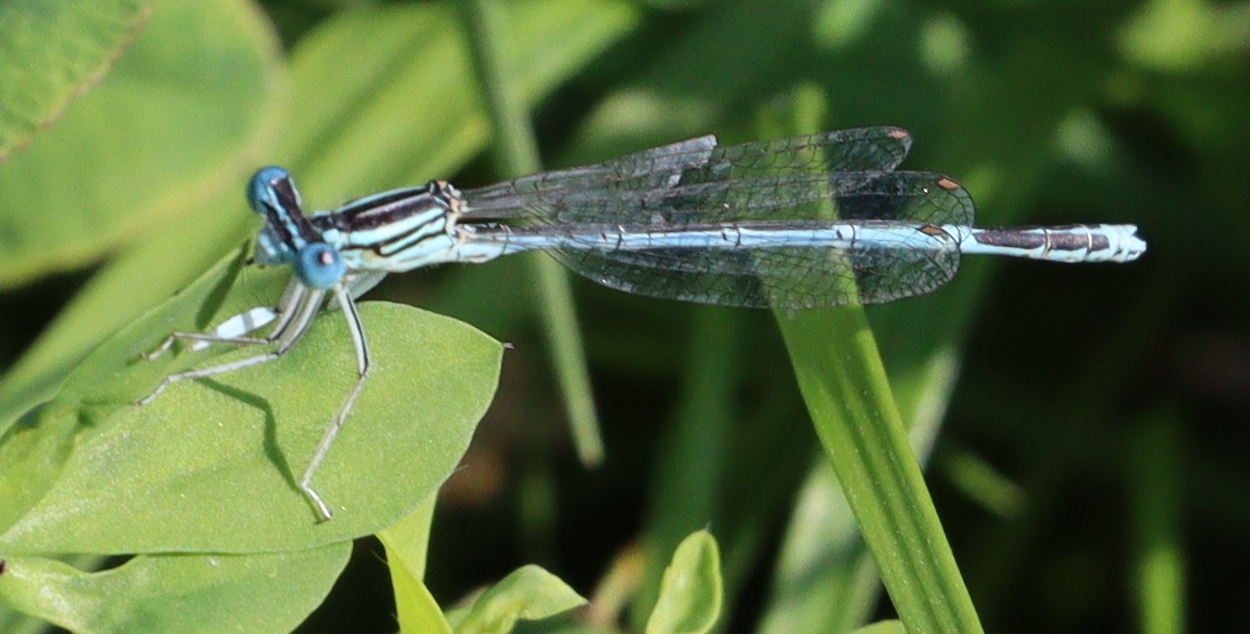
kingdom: Animalia
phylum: Arthropoda
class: Insecta
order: Odonata
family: Platycnemididae
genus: Platycnemis
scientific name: Platycnemis pennipes
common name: White-legged damselfly
